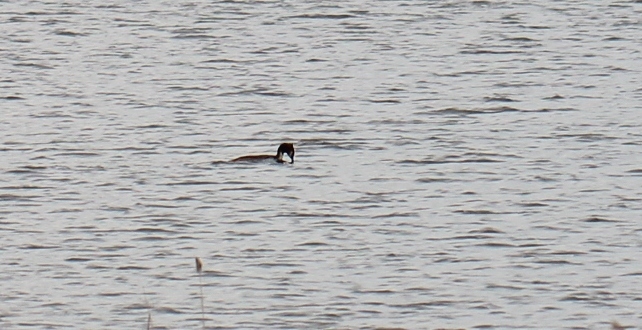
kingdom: Animalia
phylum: Chordata
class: Aves
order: Podicipediformes
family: Podicipedidae
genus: Podiceps
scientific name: Podiceps cristatus
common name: Great crested grebe
